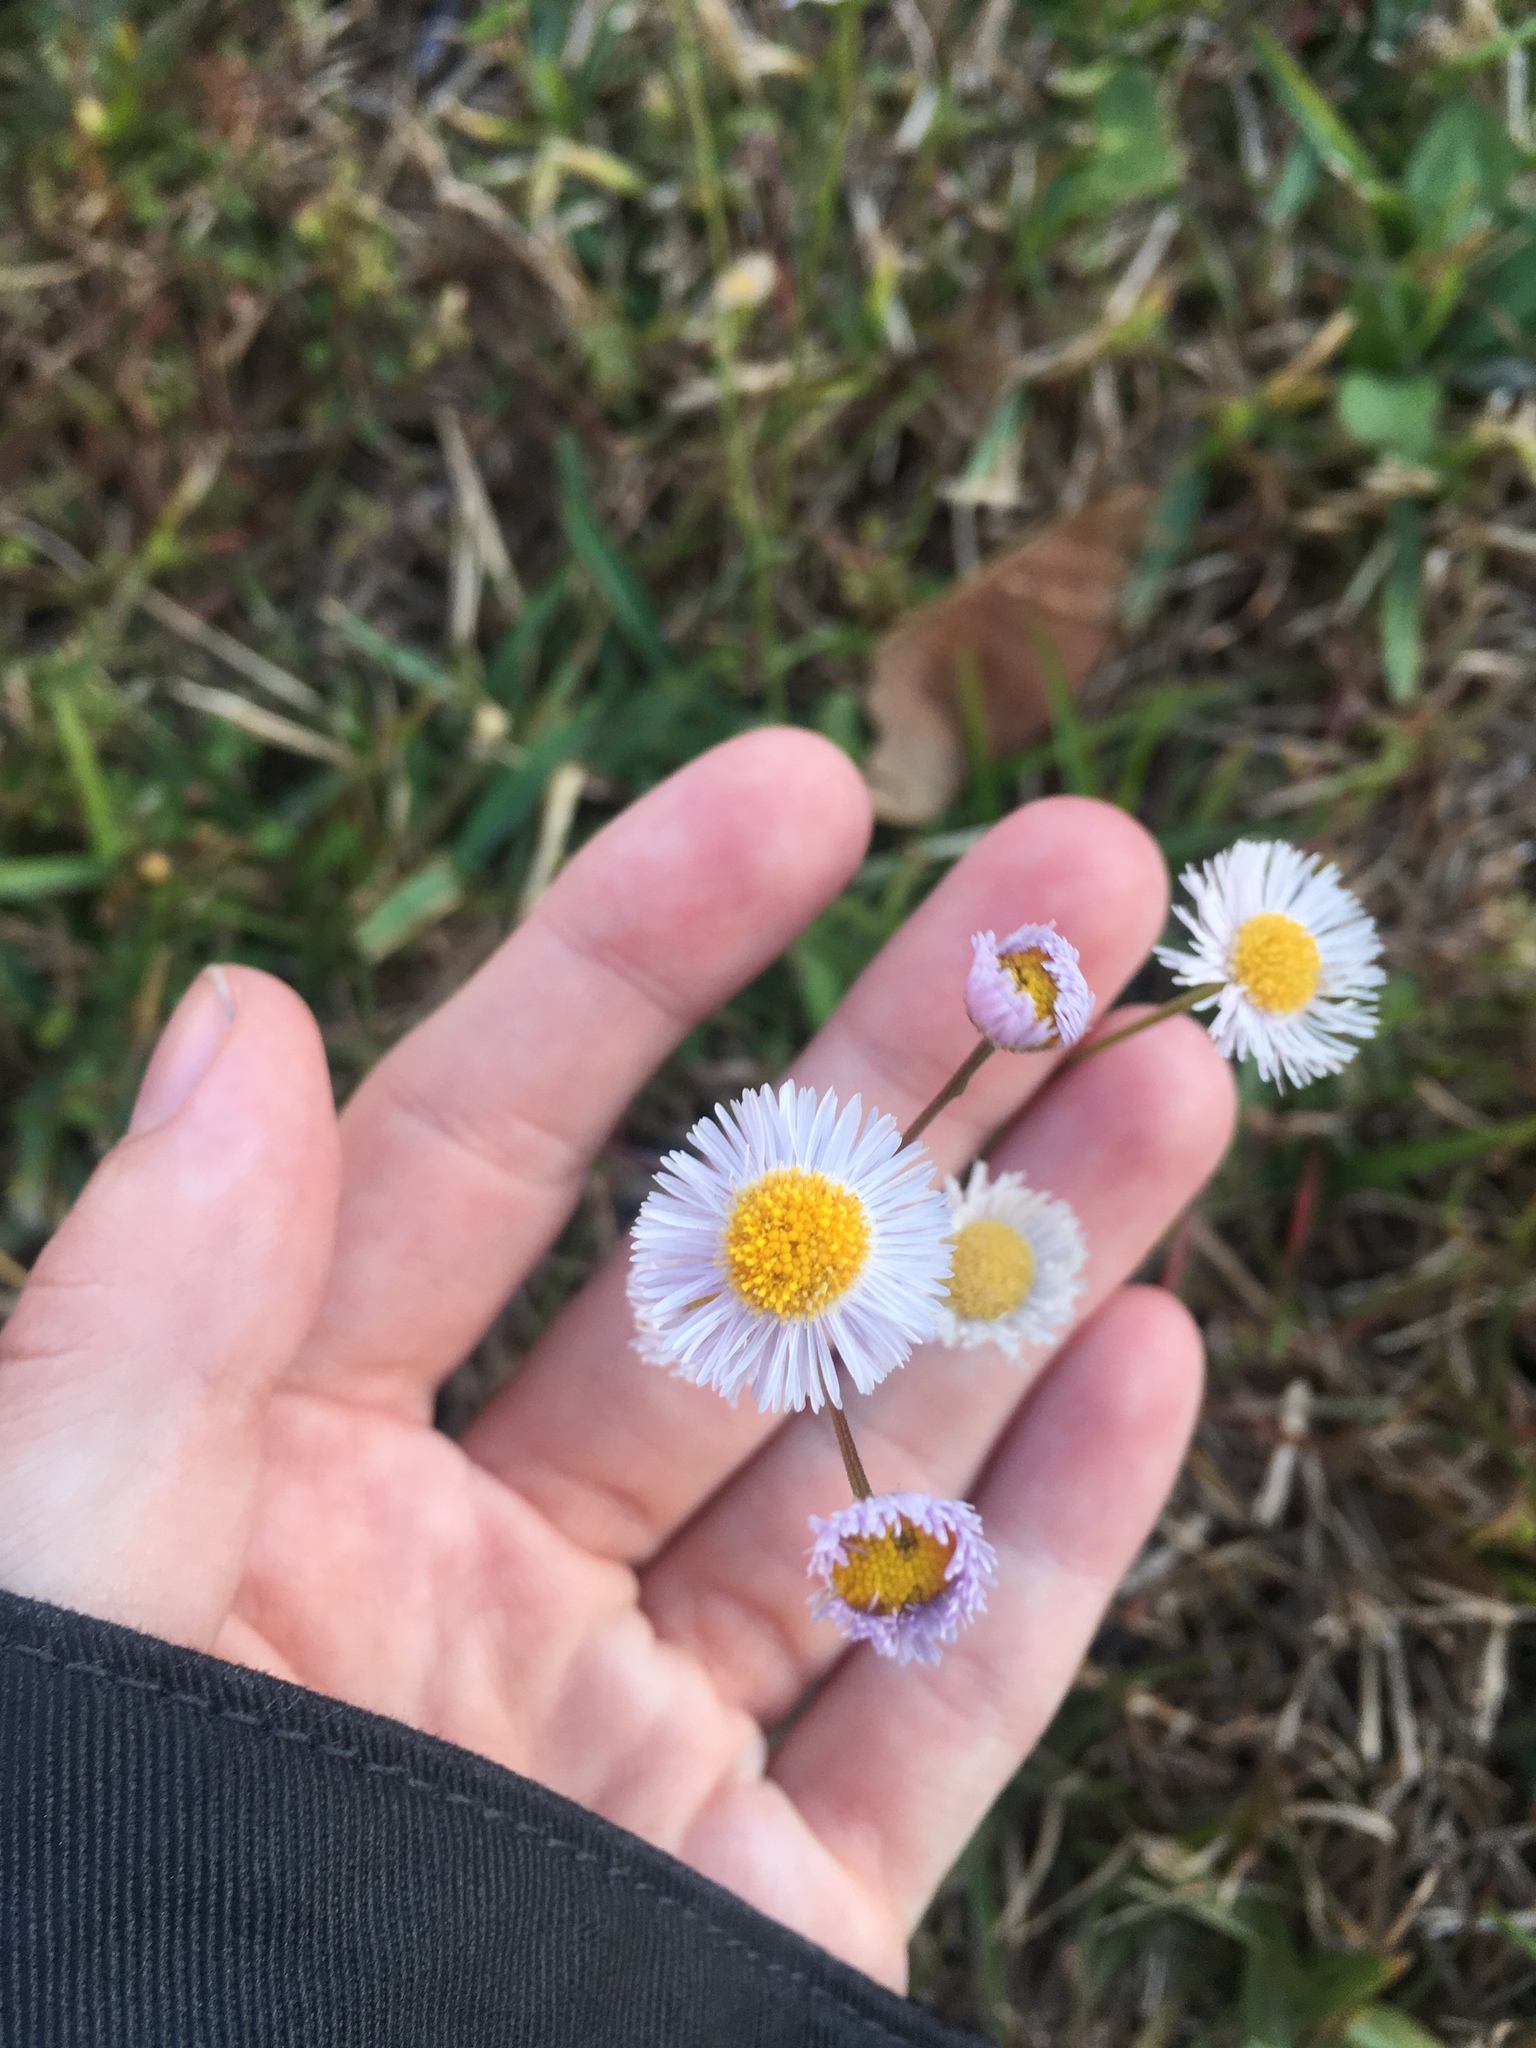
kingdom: Plantae
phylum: Tracheophyta
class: Magnoliopsida
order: Asterales
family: Asteraceae
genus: Erigeron
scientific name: Erigeron quercifolius
